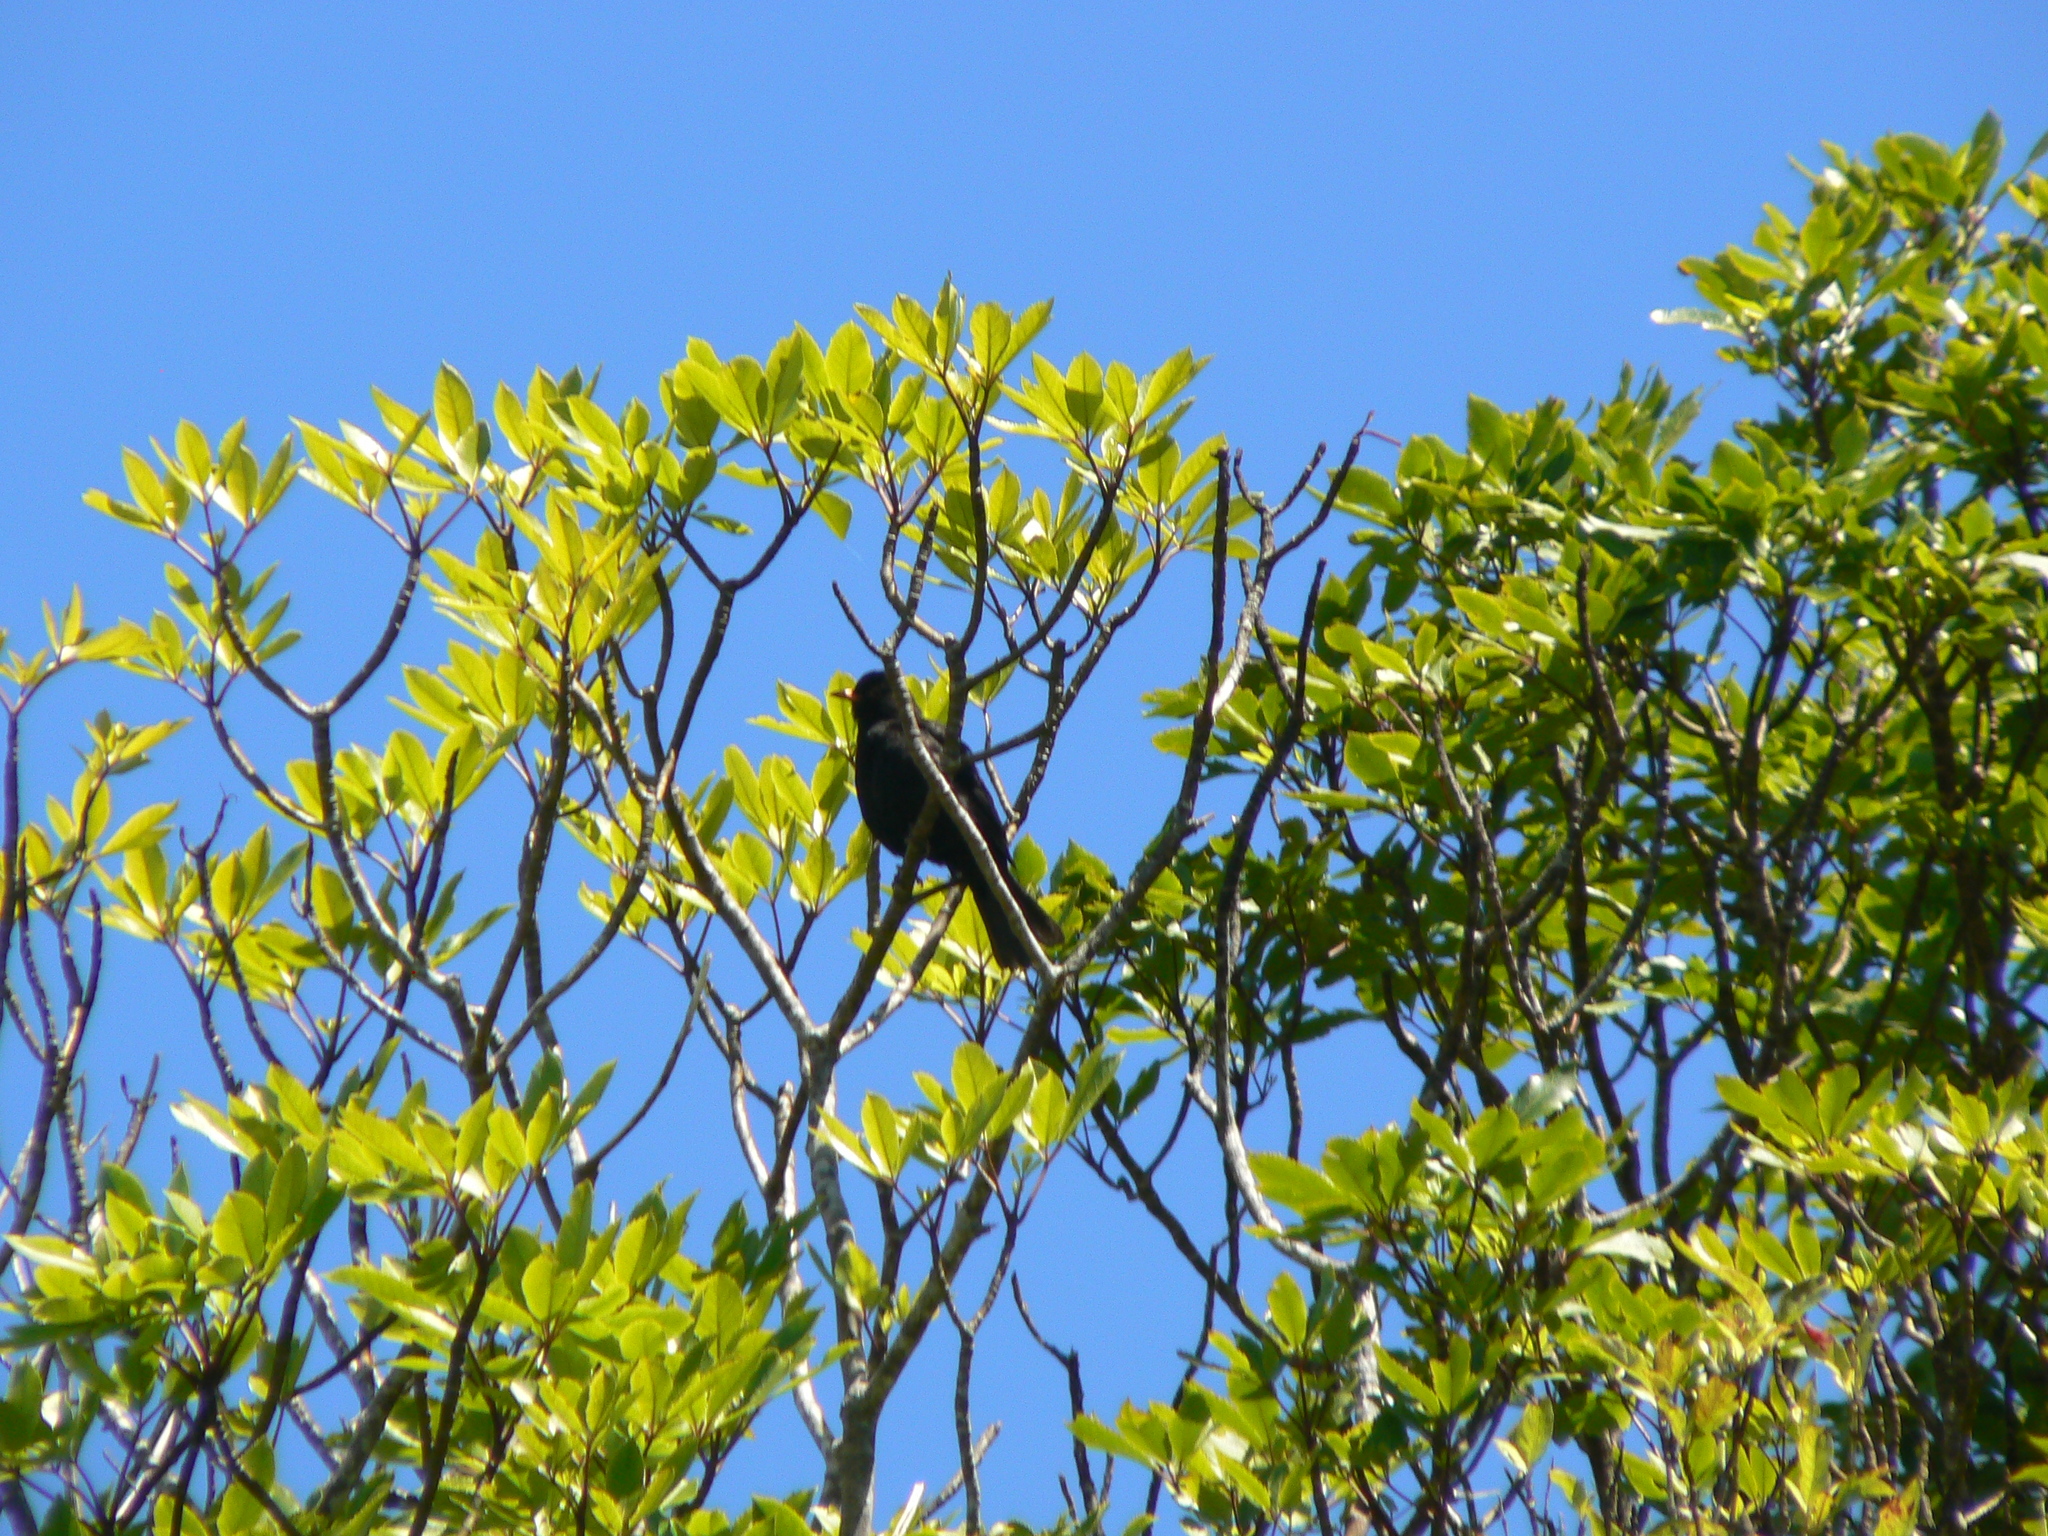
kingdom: Animalia
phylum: Chordata
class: Aves
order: Passeriformes
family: Turdidae
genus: Turdus
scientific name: Turdus merula
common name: Common blackbird
